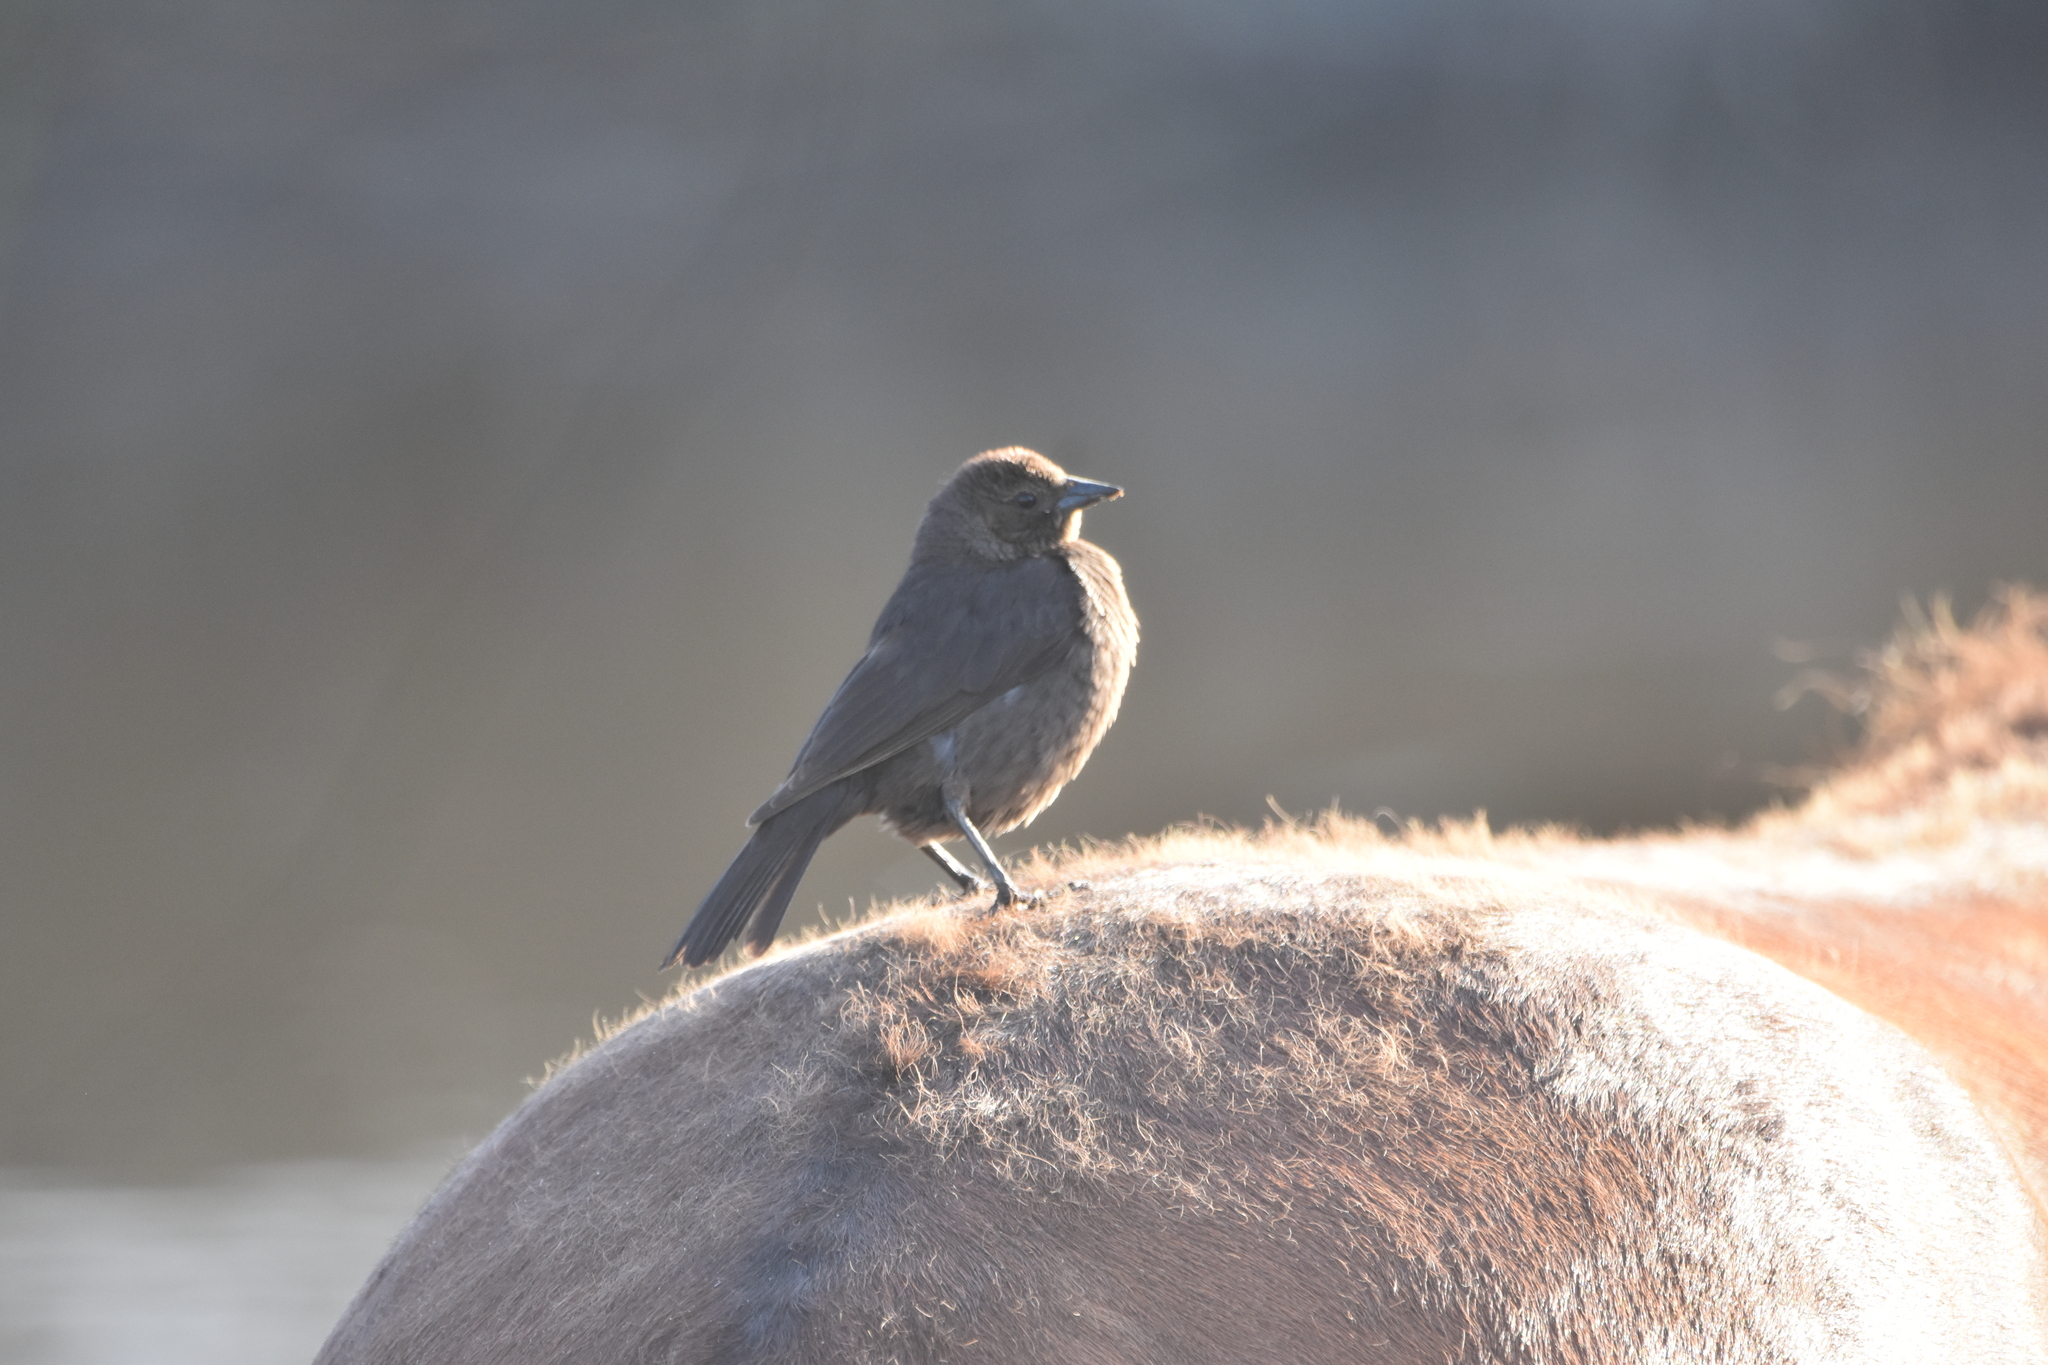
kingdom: Animalia
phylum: Chordata
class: Aves
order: Passeriformes
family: Icteridae
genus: Molothrus
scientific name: Molothrus bonariensis
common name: Shiny cowbird
